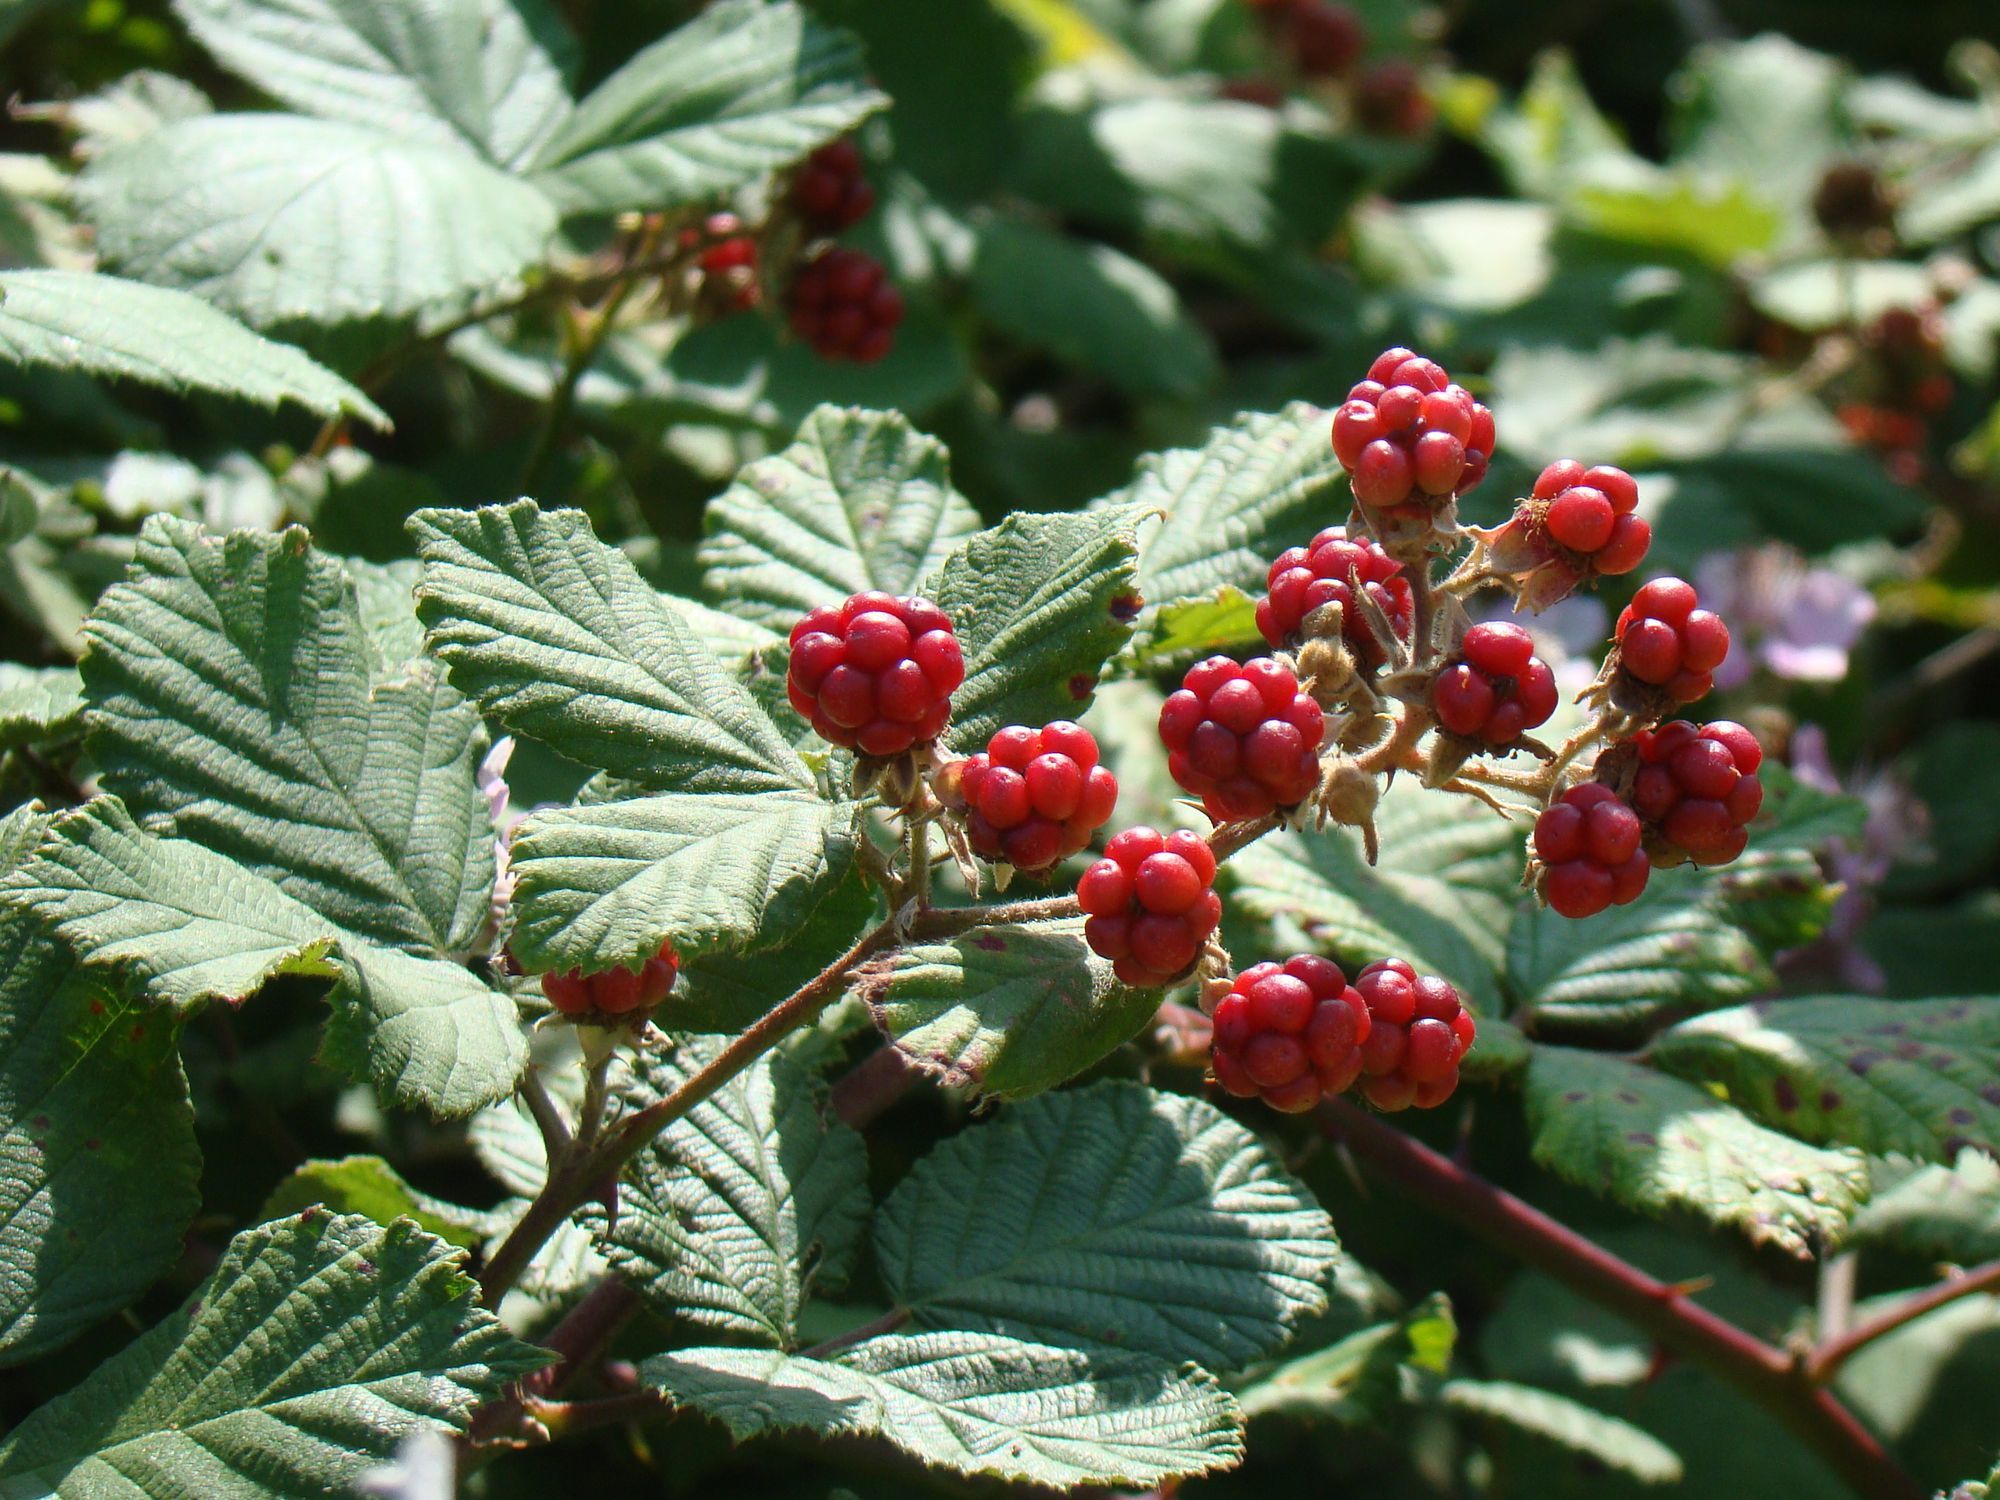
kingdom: Plantae
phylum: Tracheophyta
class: Magnoliopsida
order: Rosales
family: Rosaceae
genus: Rubus
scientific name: Rubus sanctus
